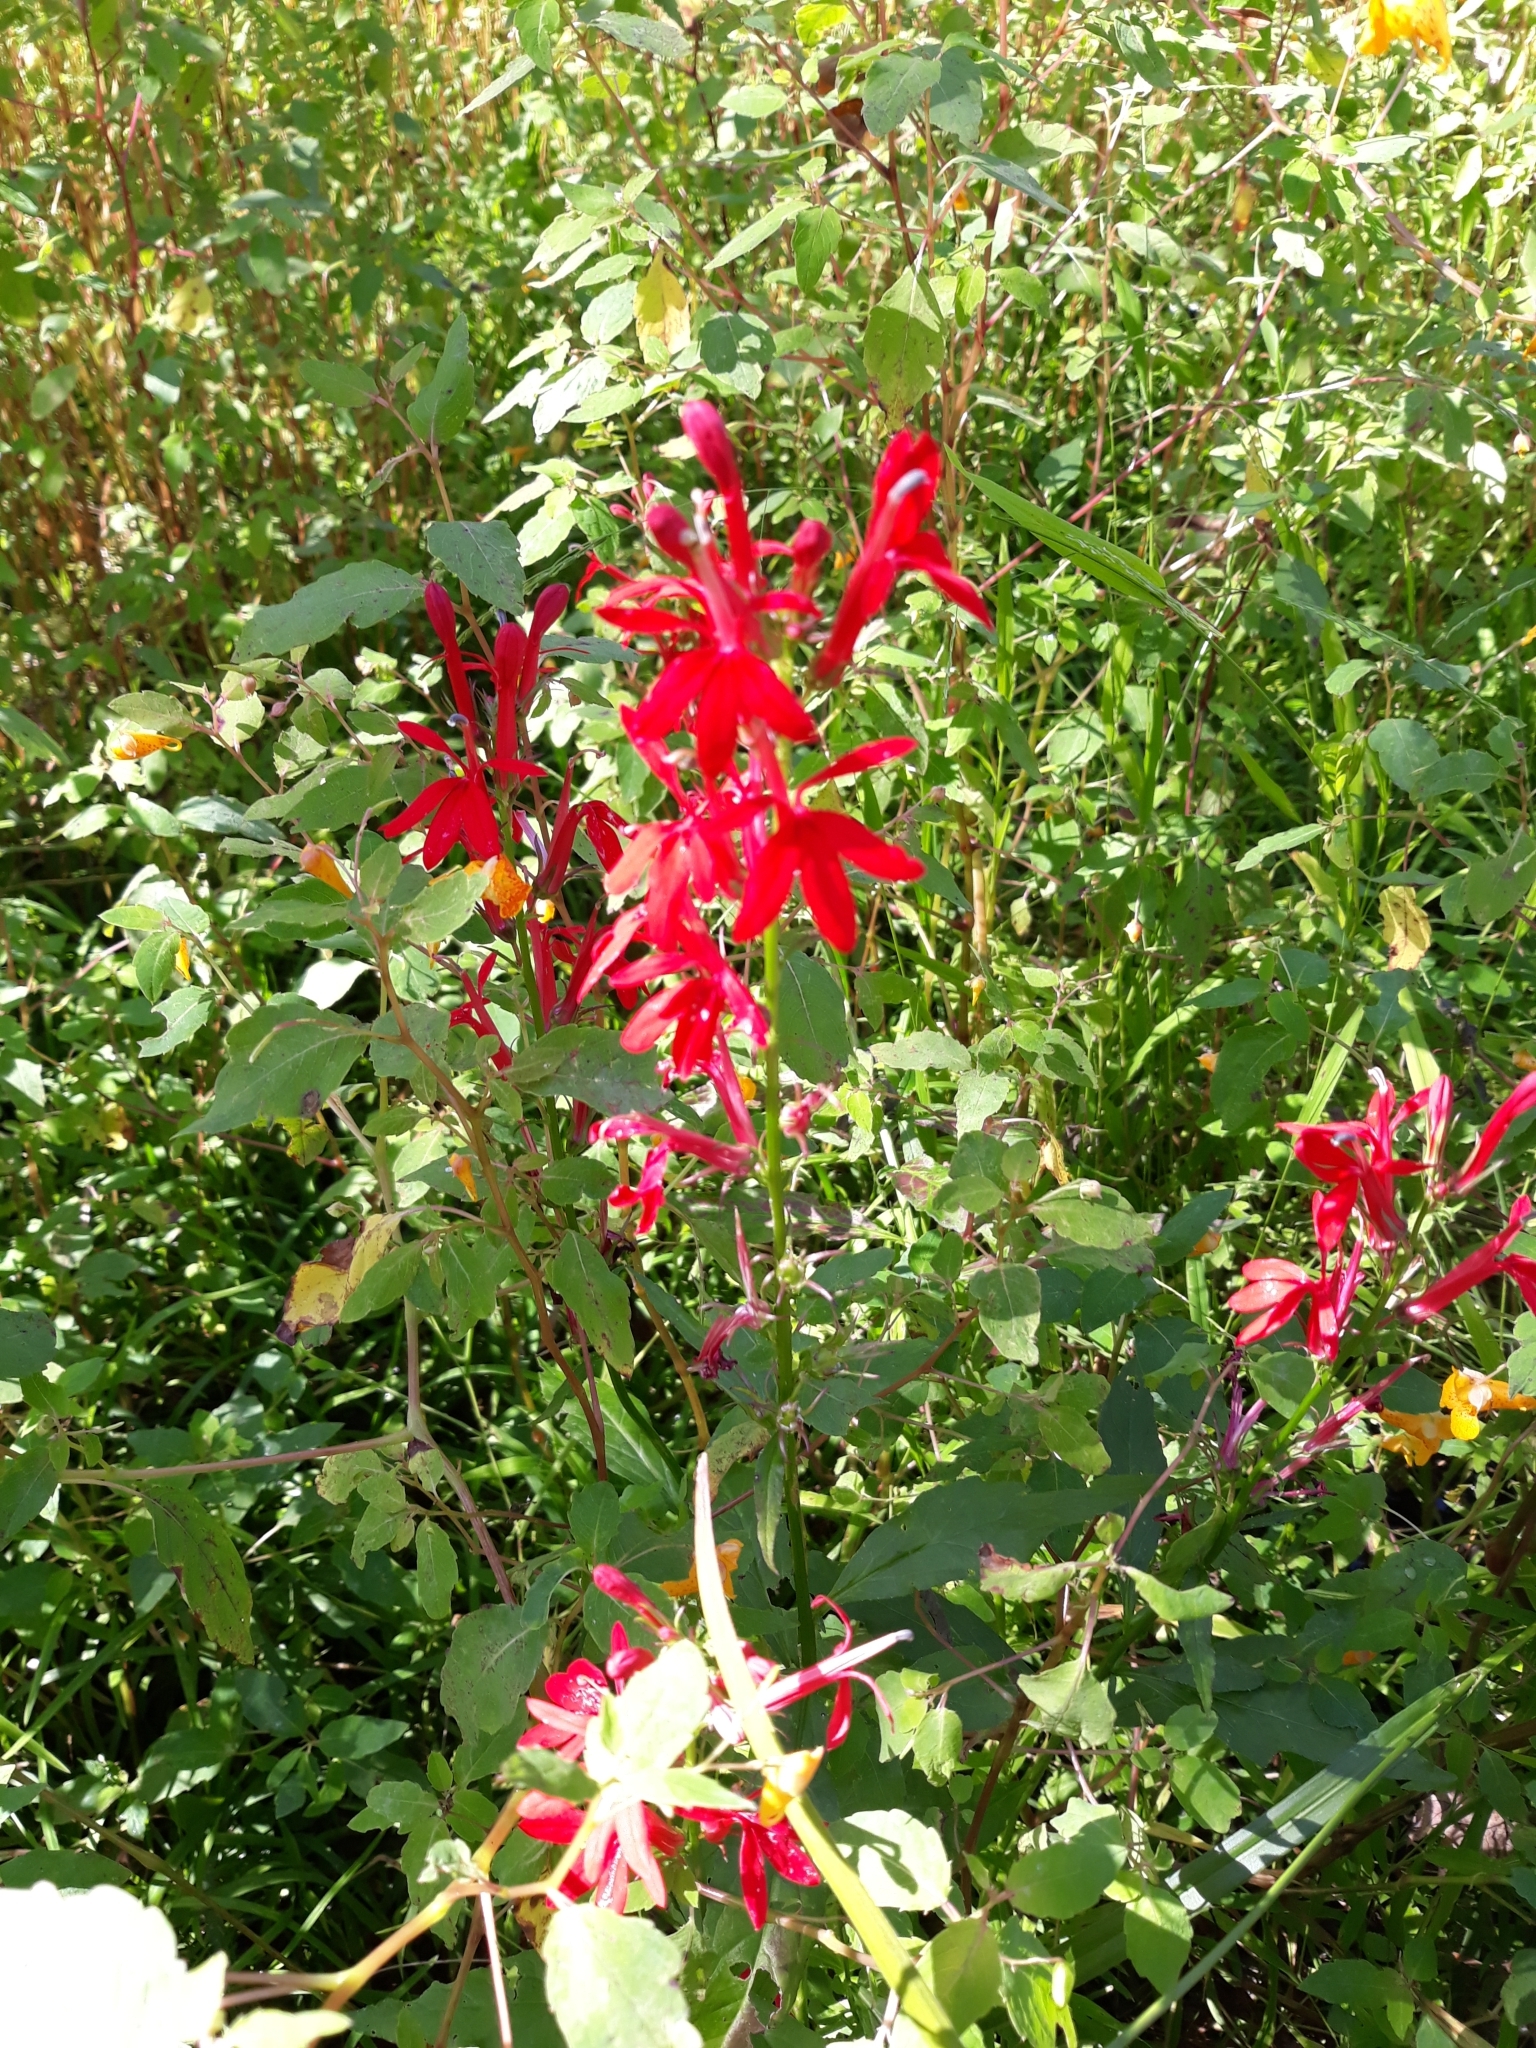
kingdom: Plantae
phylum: Tracheophyta
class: Magnoliopsida
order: Asterales
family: Campanulaceae
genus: Lobelia
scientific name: Lobelia cardinalis
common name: Cardinal flower
